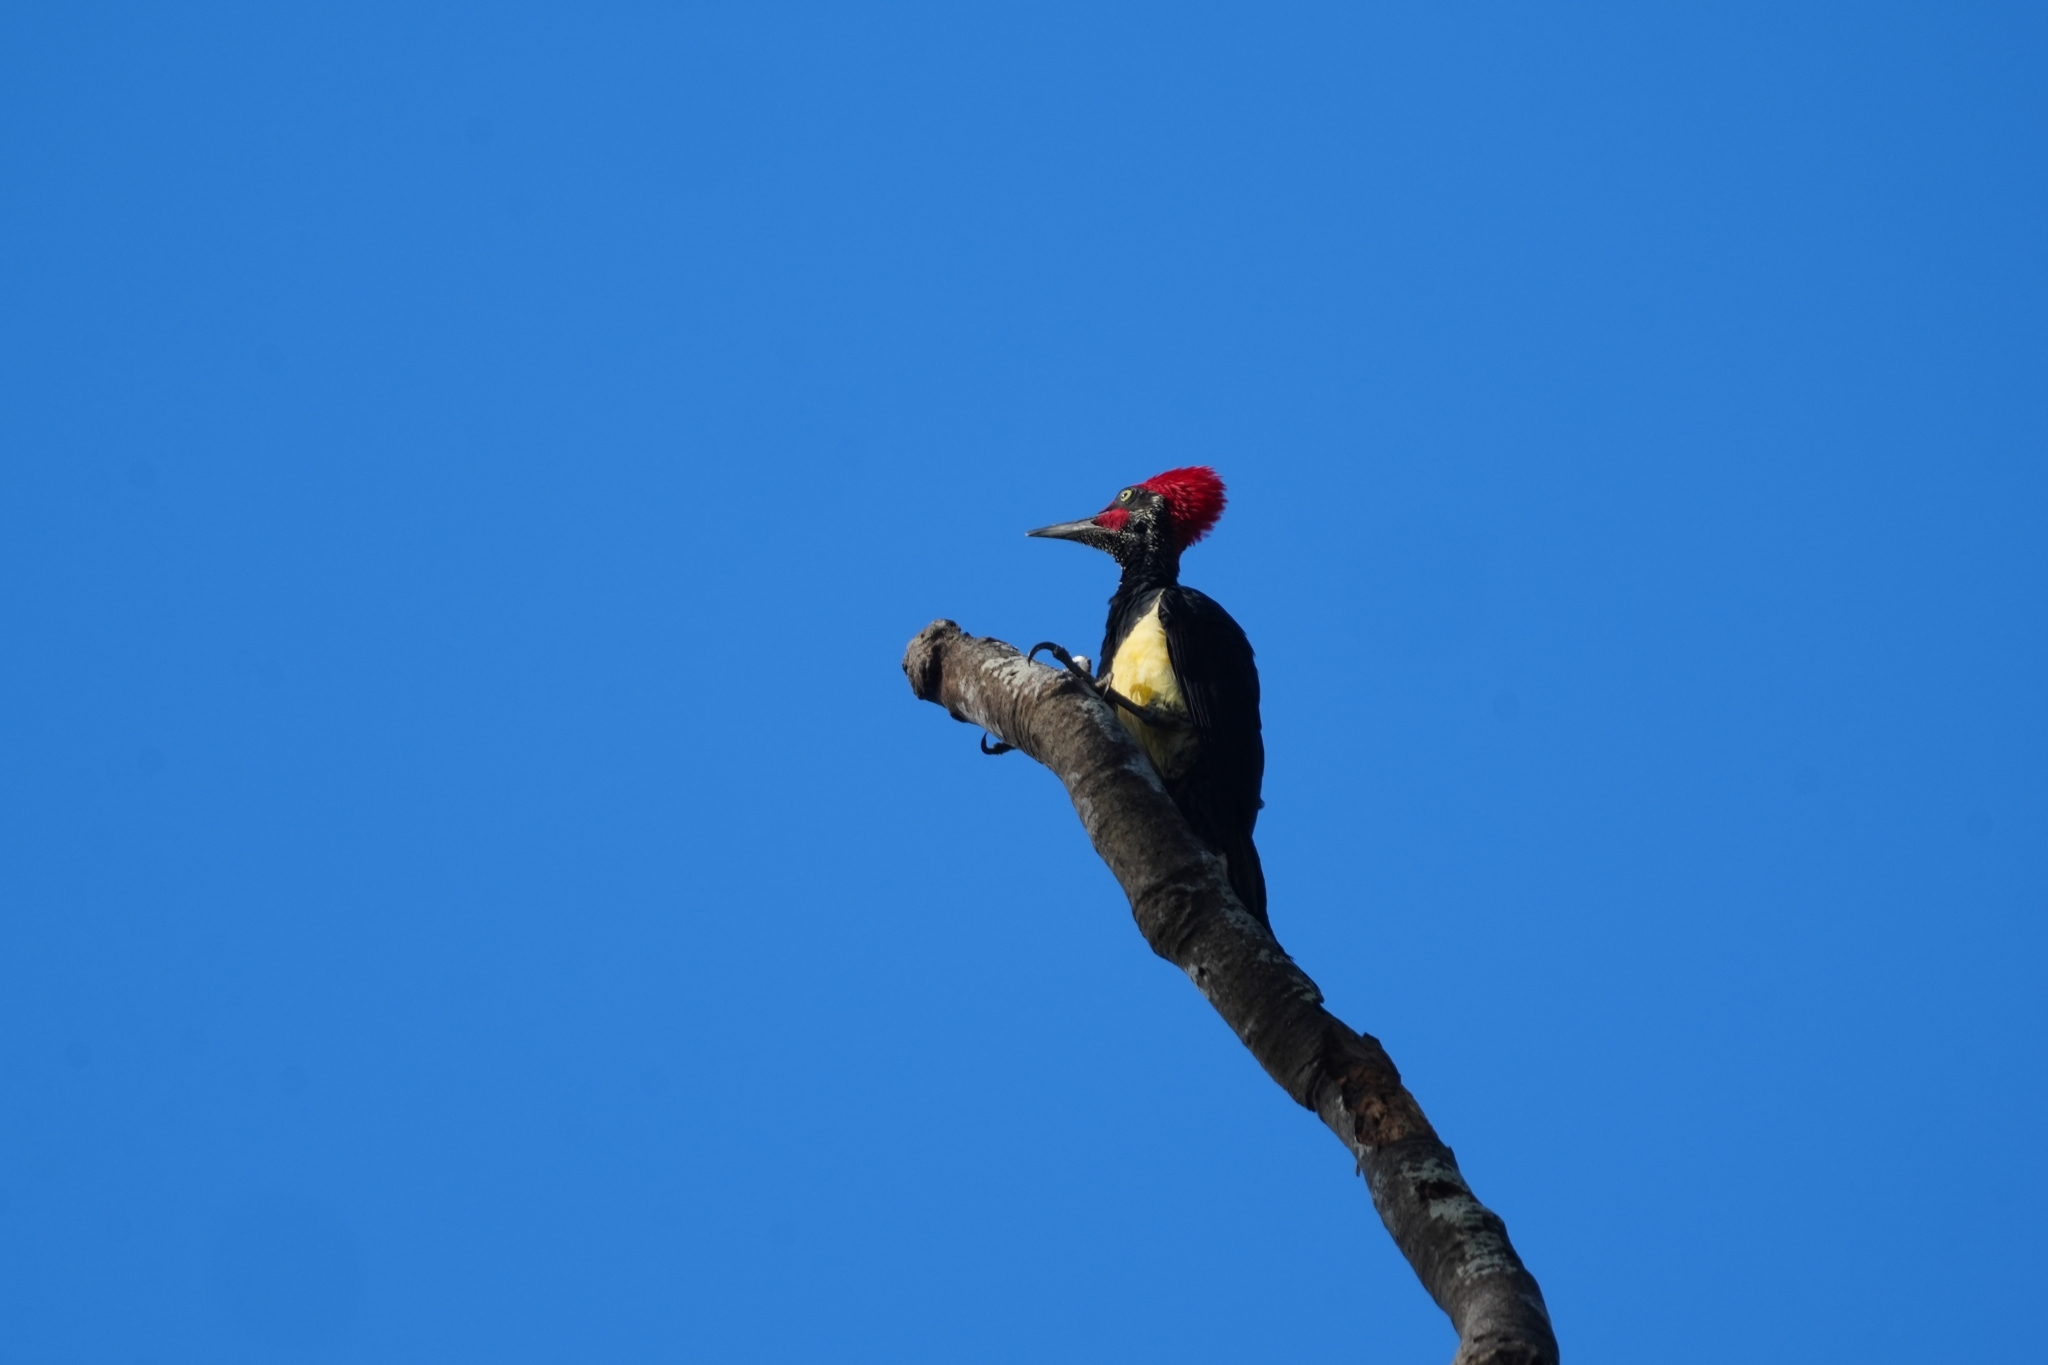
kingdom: Animalia
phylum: Chordata
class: Aves
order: Piciformes
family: Picidae
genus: Dryocopus
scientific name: Dryocopus javensis
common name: White-bellied woodpecker
